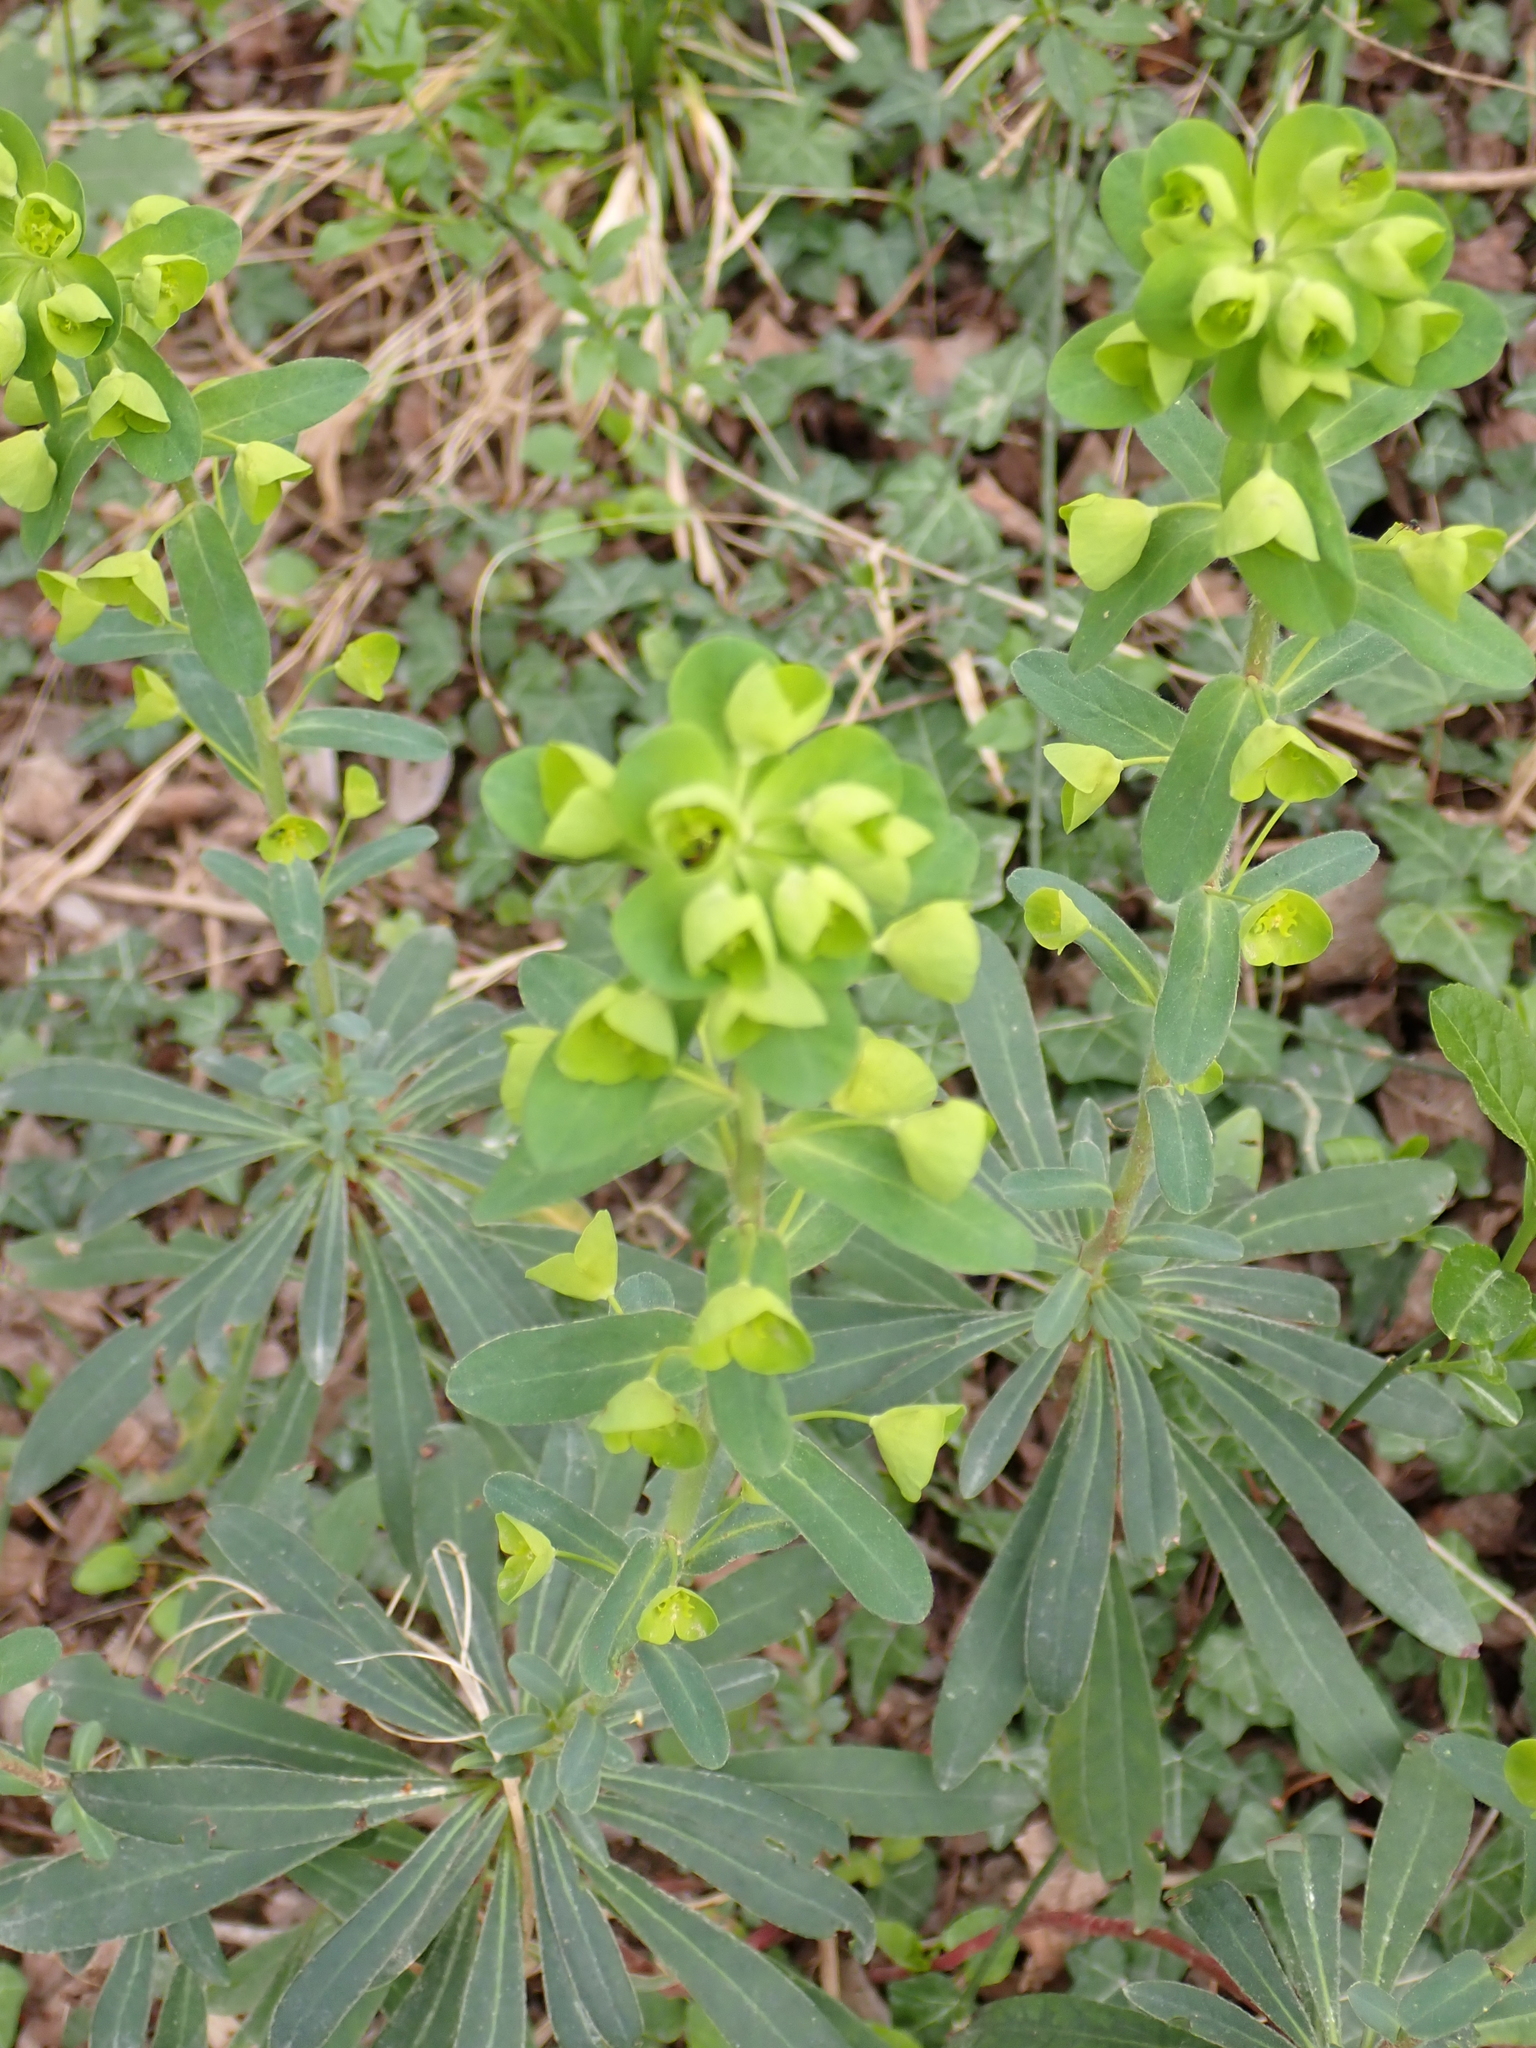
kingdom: Plantae
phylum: Tracheophyta
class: Magnoliopsida
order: Malpighiales
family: Euphorbiaceae
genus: Euphorbia
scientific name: Euphorbia amygdaloides
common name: Wood spurge
